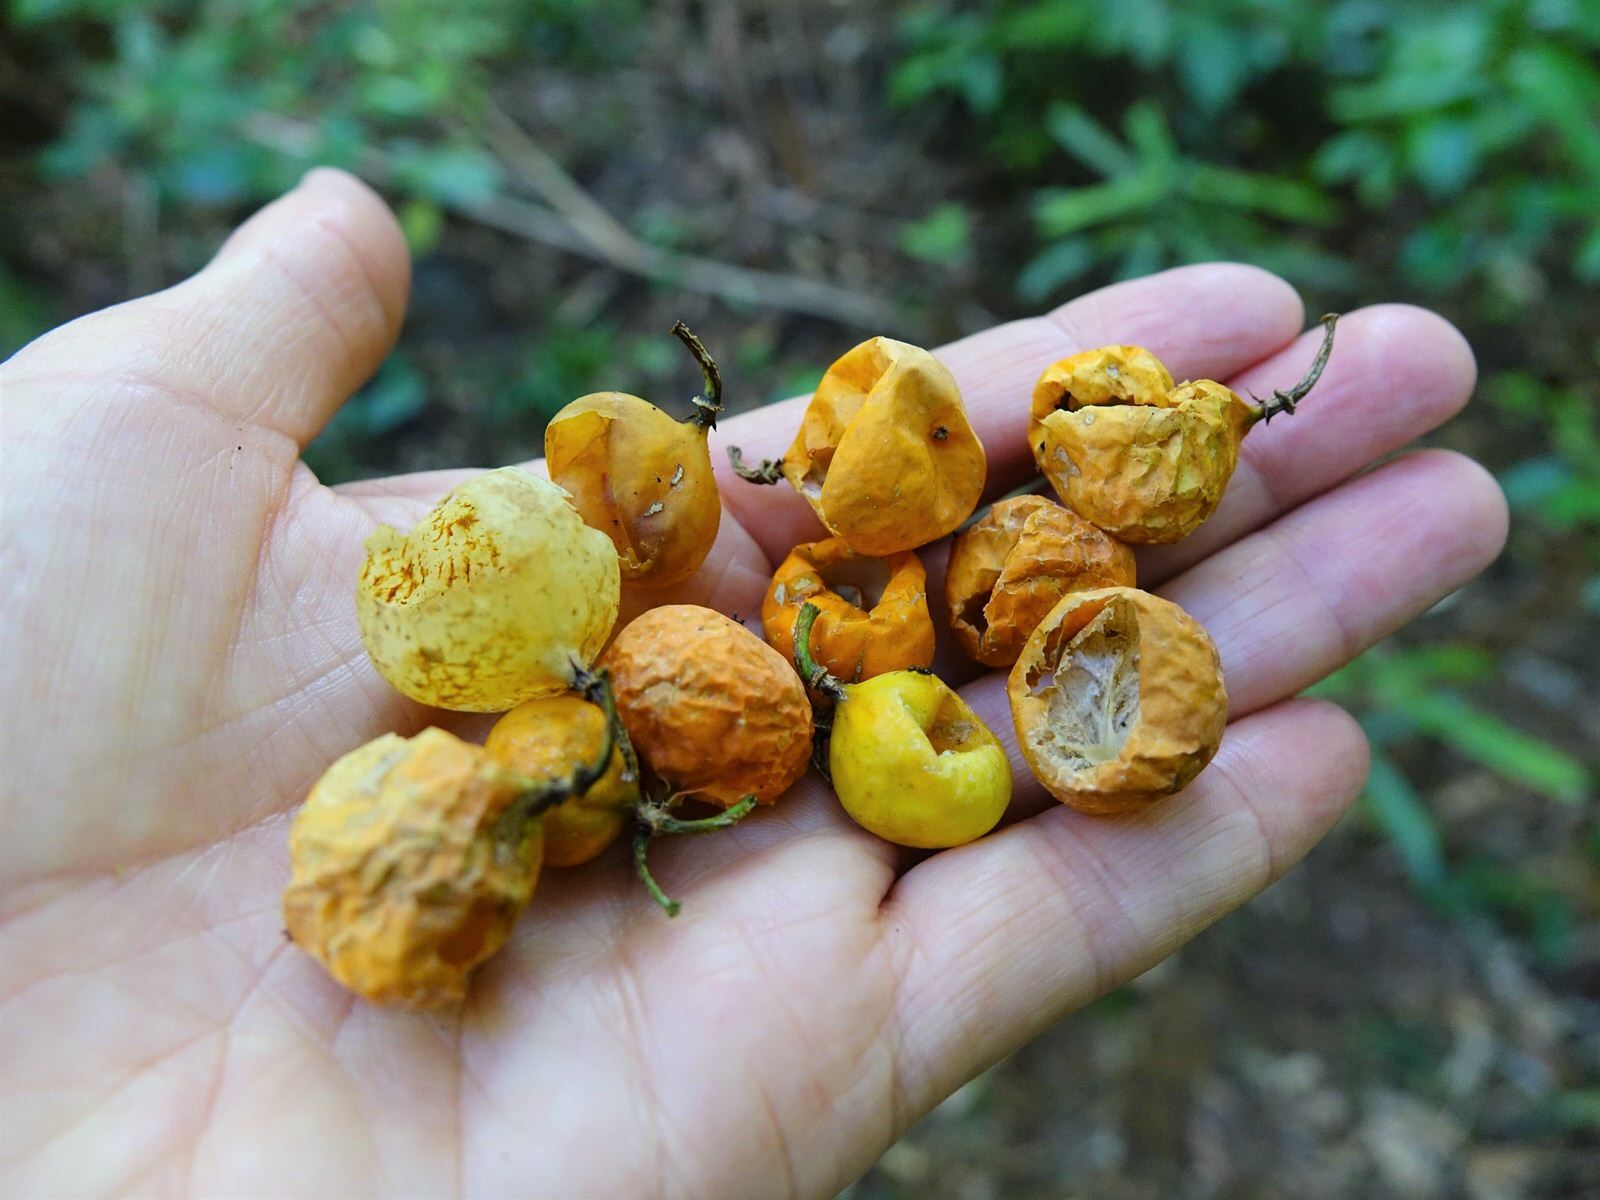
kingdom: Plantae
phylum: Tracheophyta
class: Magnoliopsida
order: Malpighiales
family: Passifloraceae
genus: Passiflora
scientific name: Passiflora tetrandra
